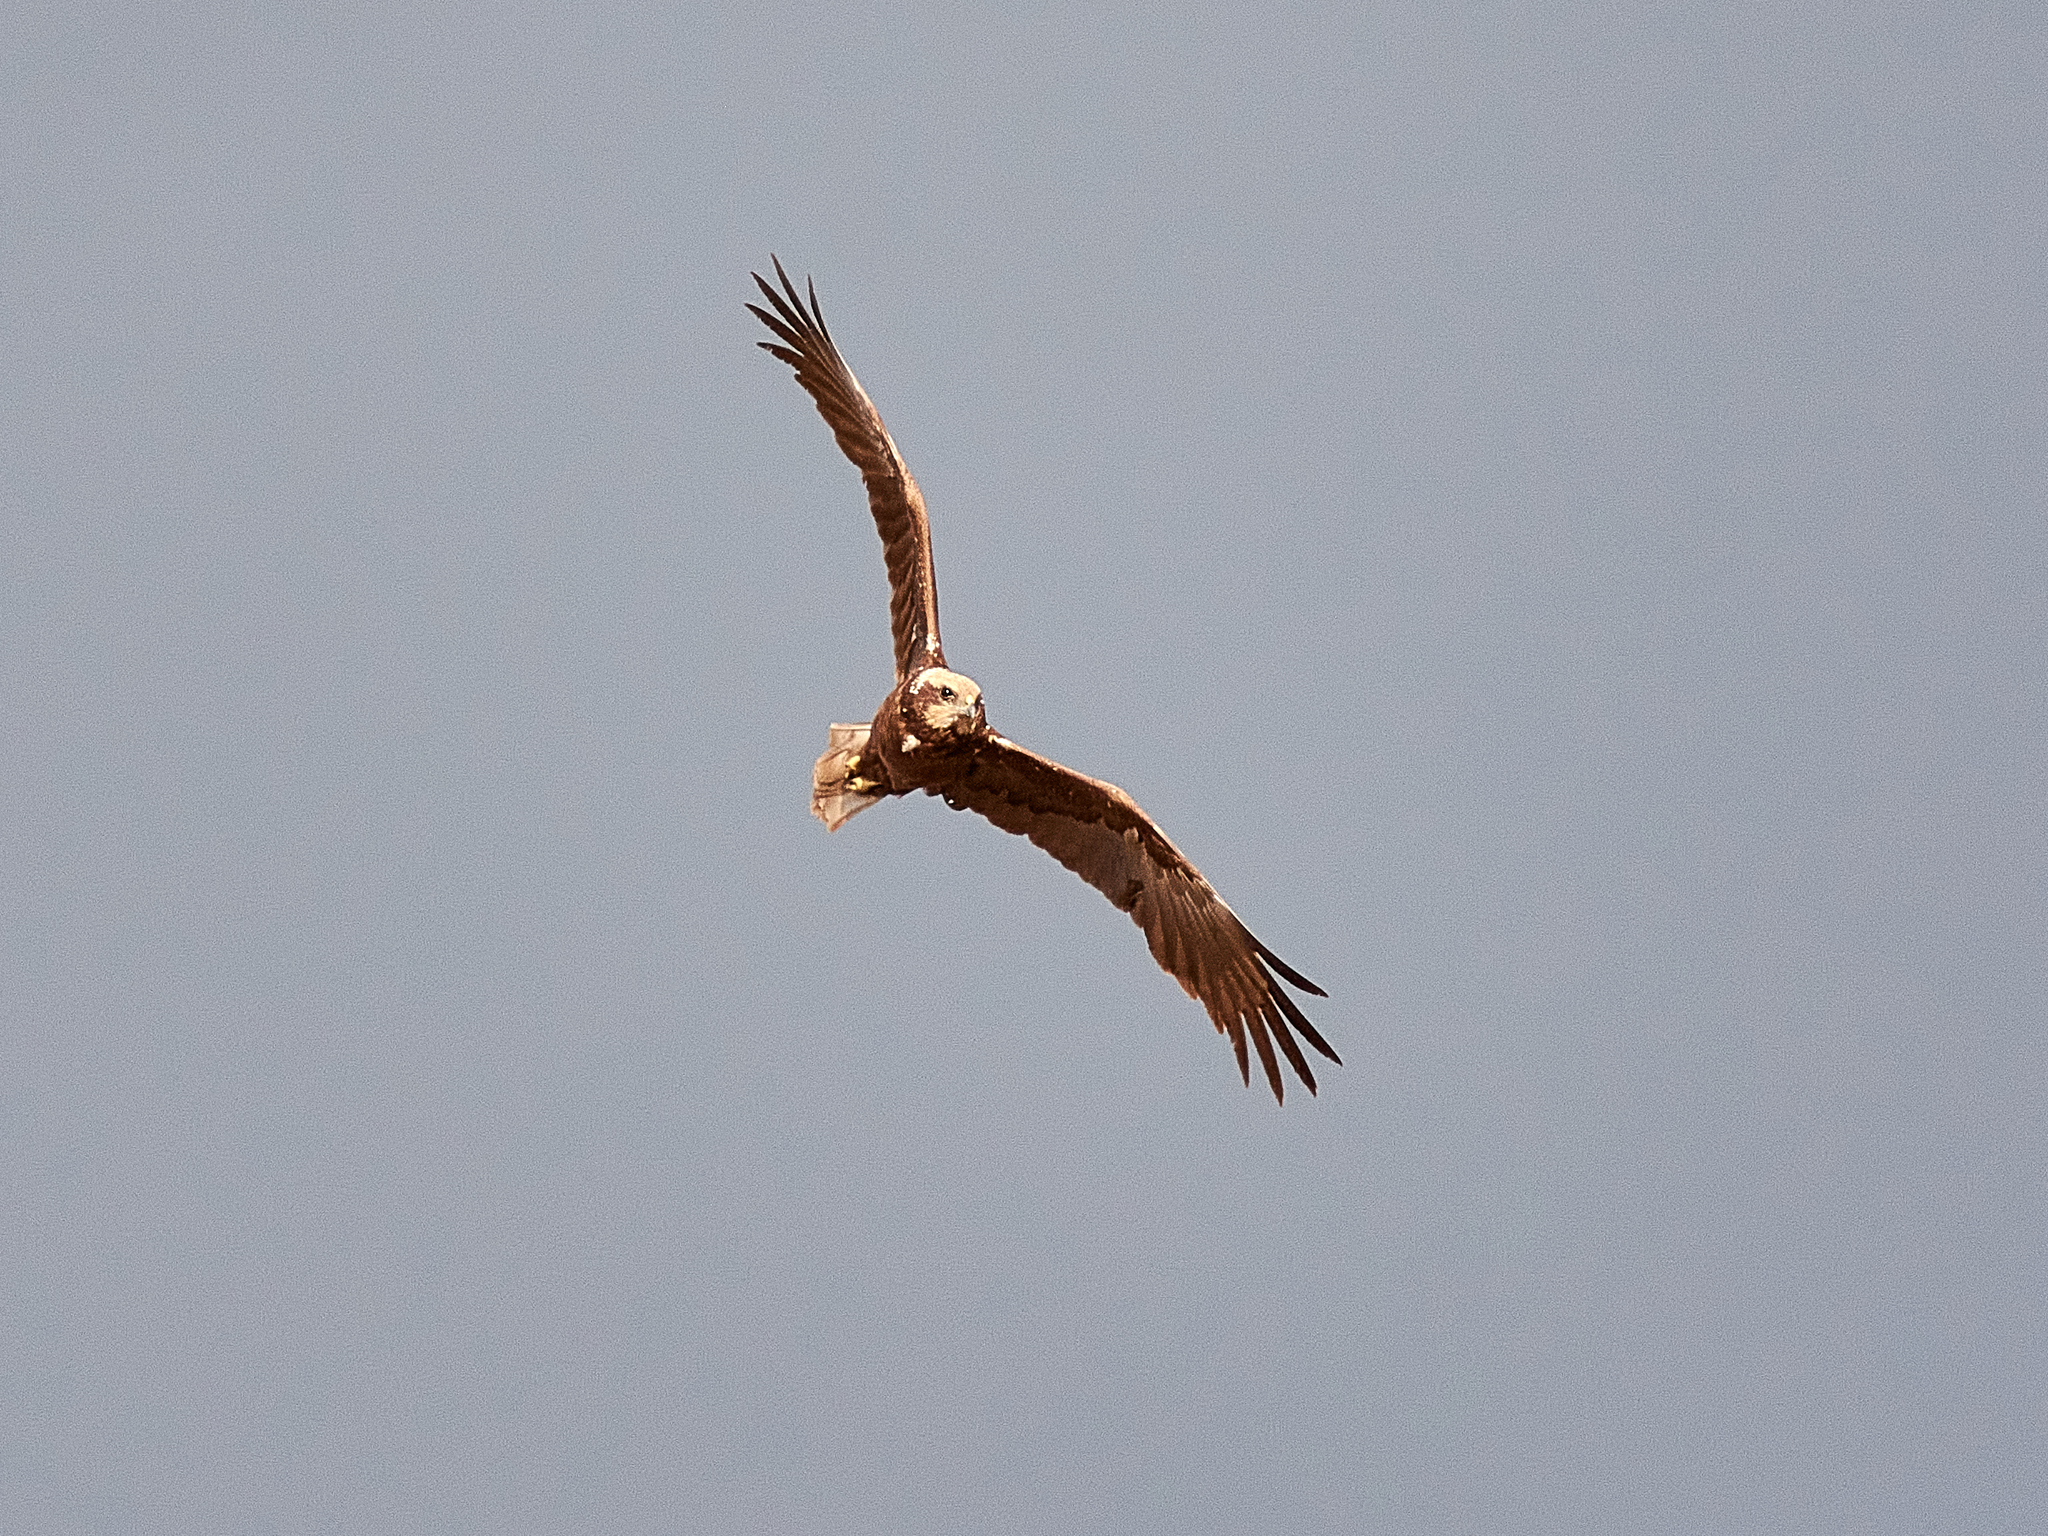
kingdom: Animalia
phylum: Chordata
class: Aves
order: Accipitriformes
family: Accipitridae
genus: Circus
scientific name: Circus aeruginosus
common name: Western marsh harrier
